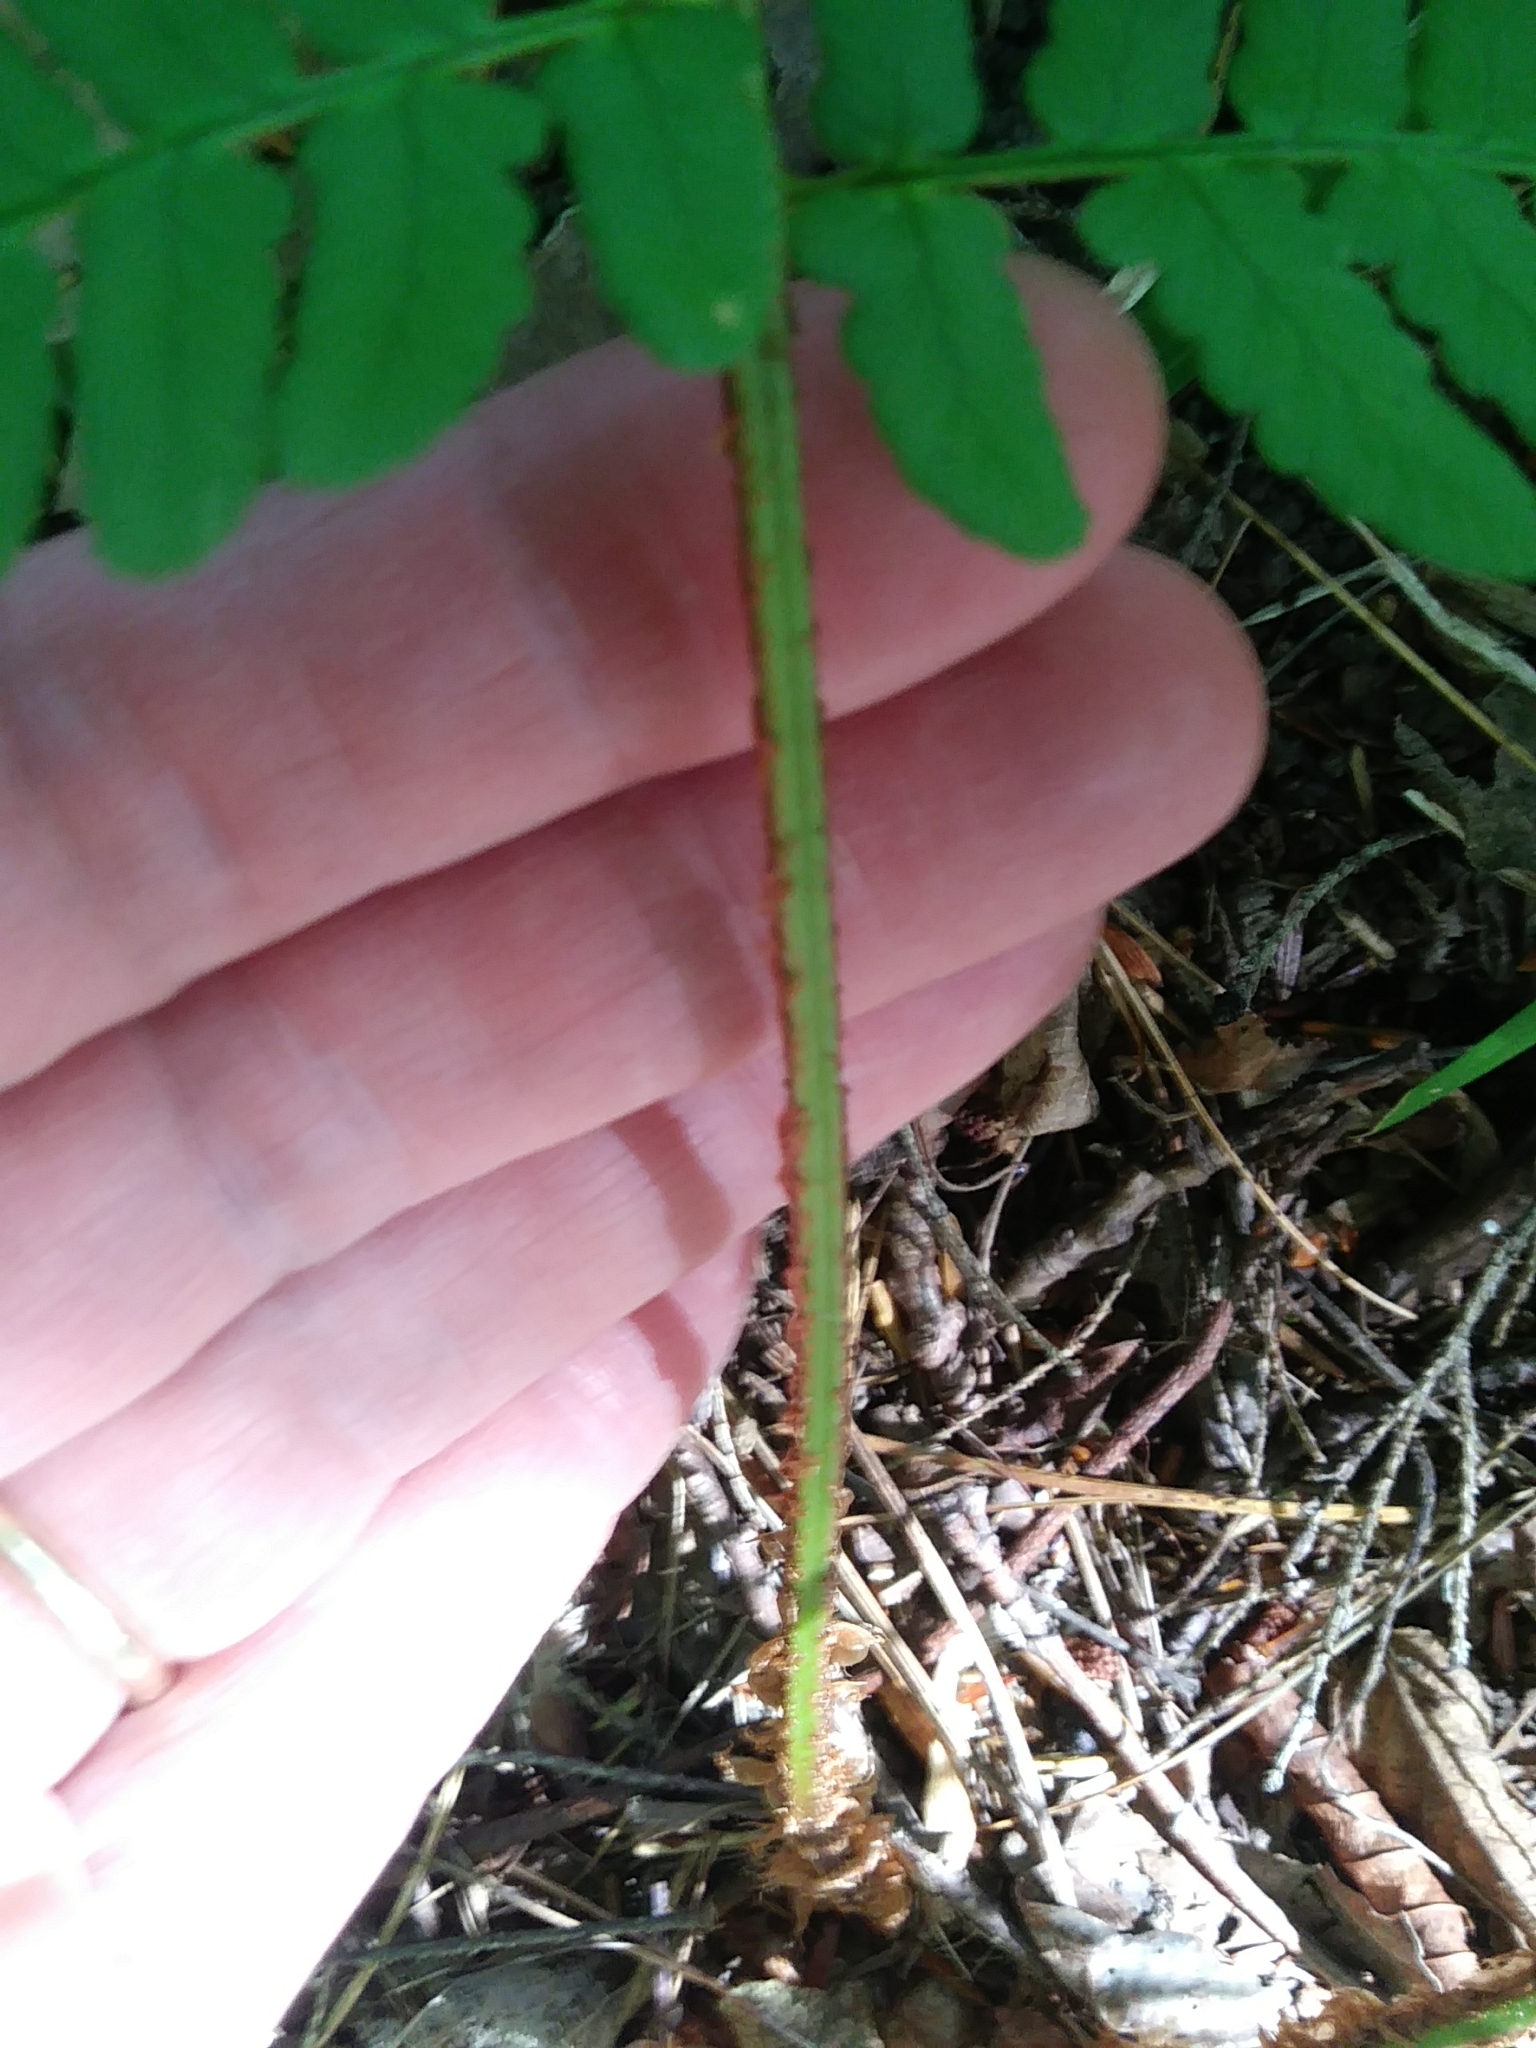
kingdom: Plantae
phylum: Tracheophyta
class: Polypodiopsida
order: Polypodiales
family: Dryopteridaceae
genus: Dryopteris
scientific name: Dryopteris marginalis
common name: Marginal wood fern
